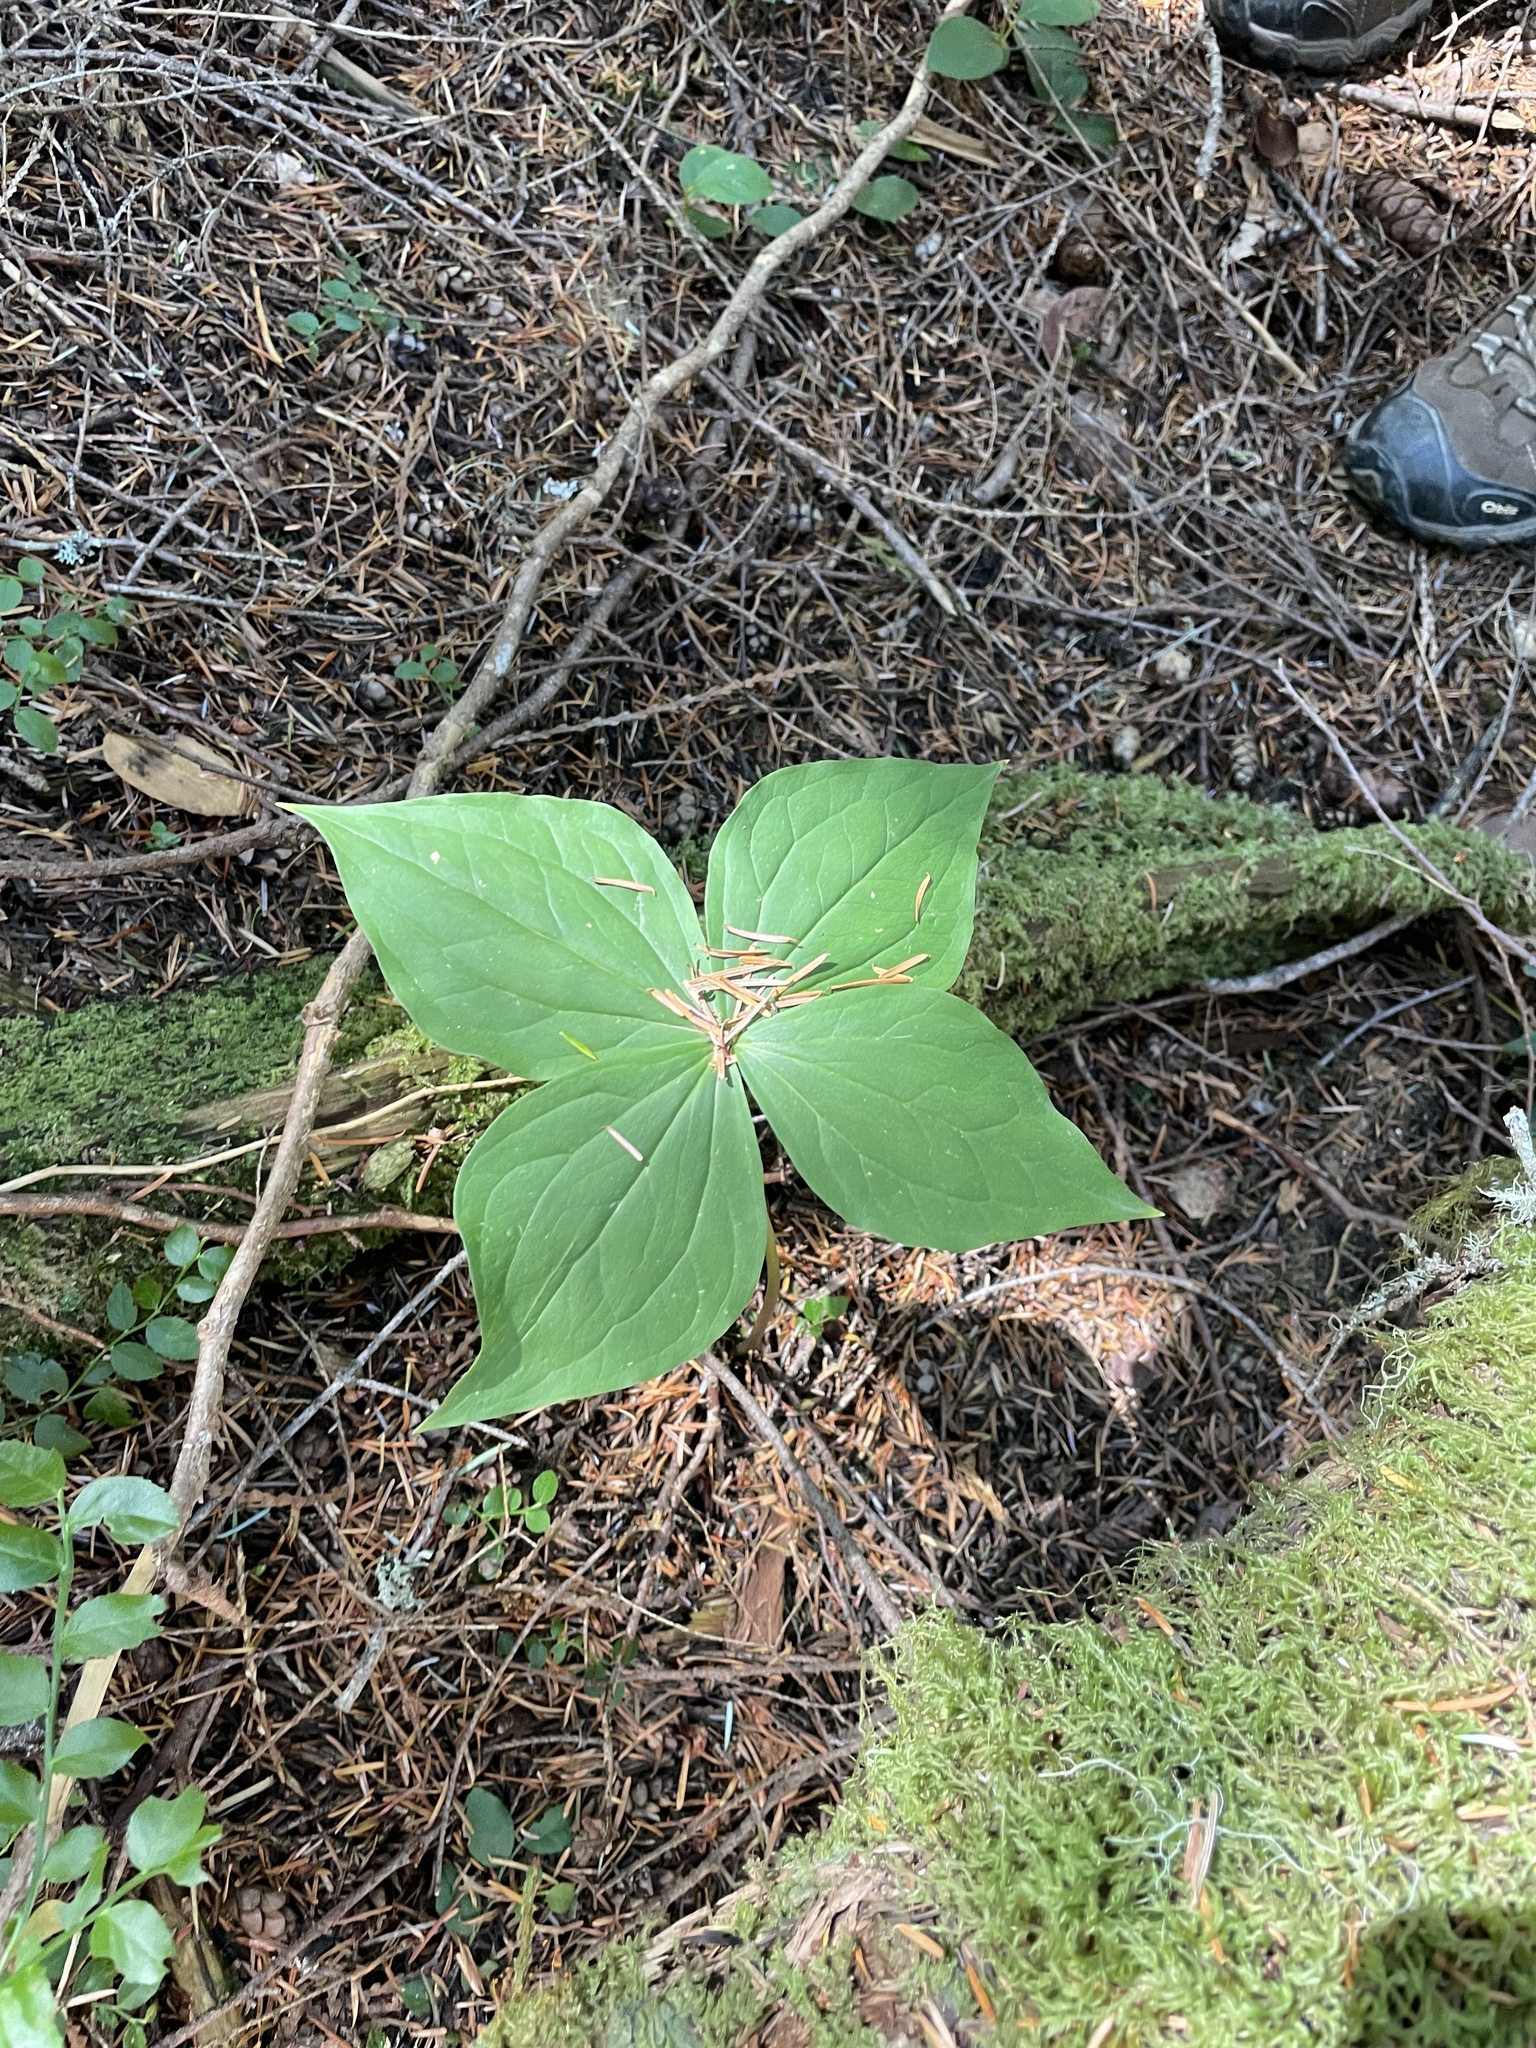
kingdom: Plantae
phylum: Tracheophyta
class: Liliopsida
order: Liliales
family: Melanthiaceae
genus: Trillium
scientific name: Trillium ovatum
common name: Pacific trillium
